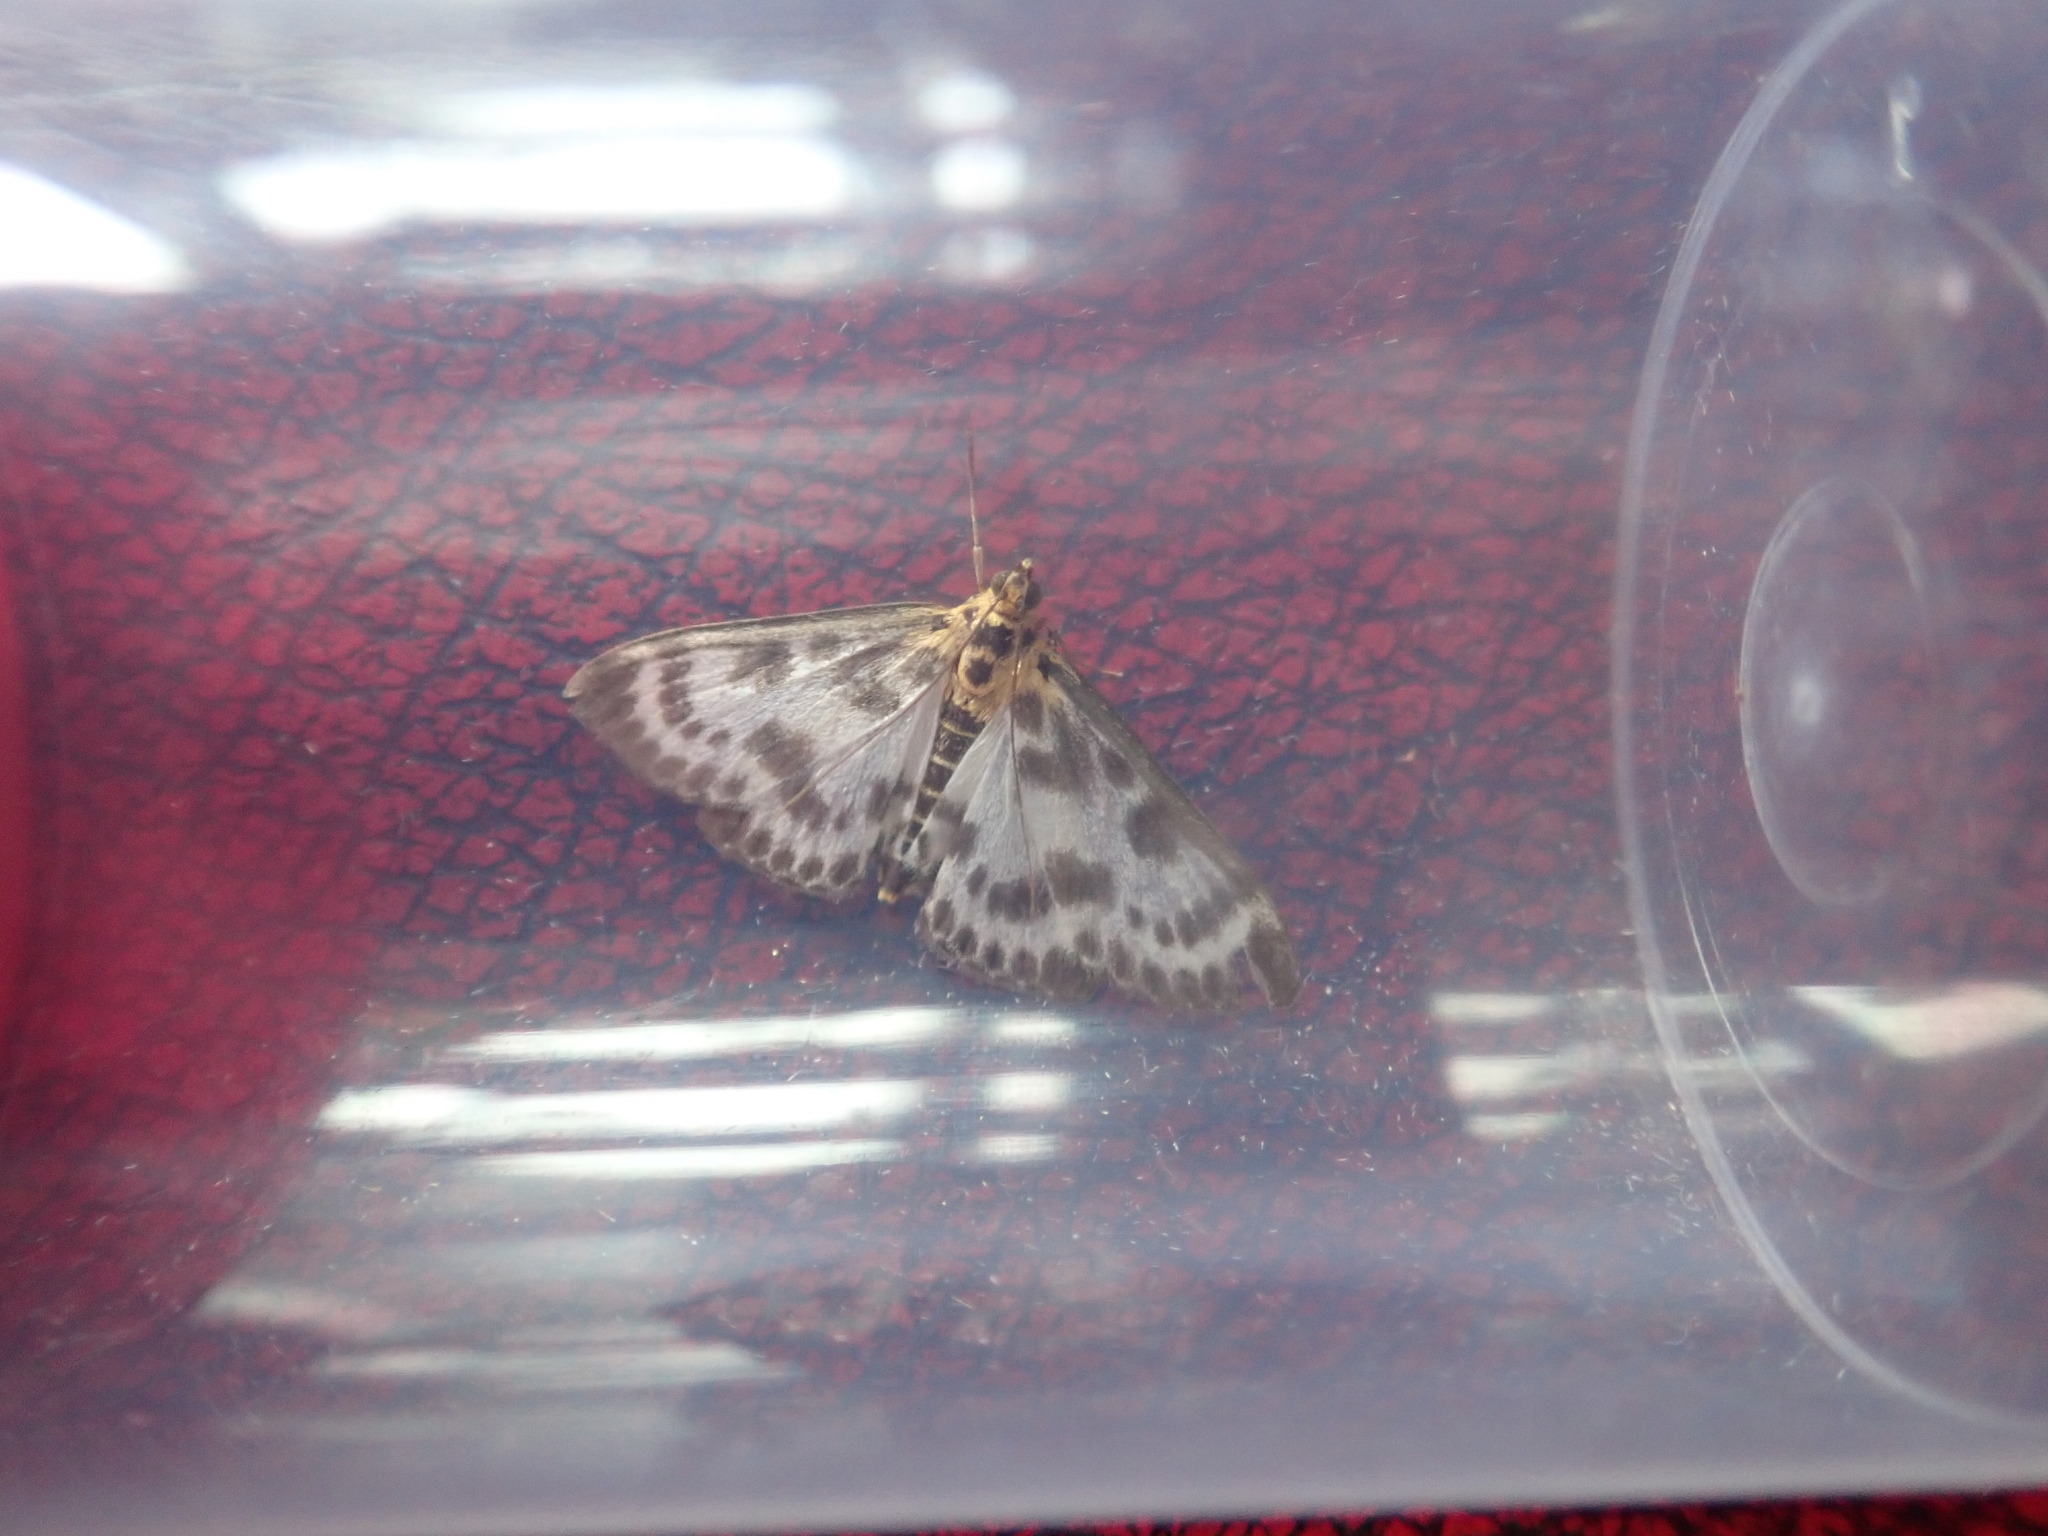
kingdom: Animalia
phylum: Arthropoda
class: Insecta
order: Lepidoptera
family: Crambidae
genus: Anania
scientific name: Anania hortulata
